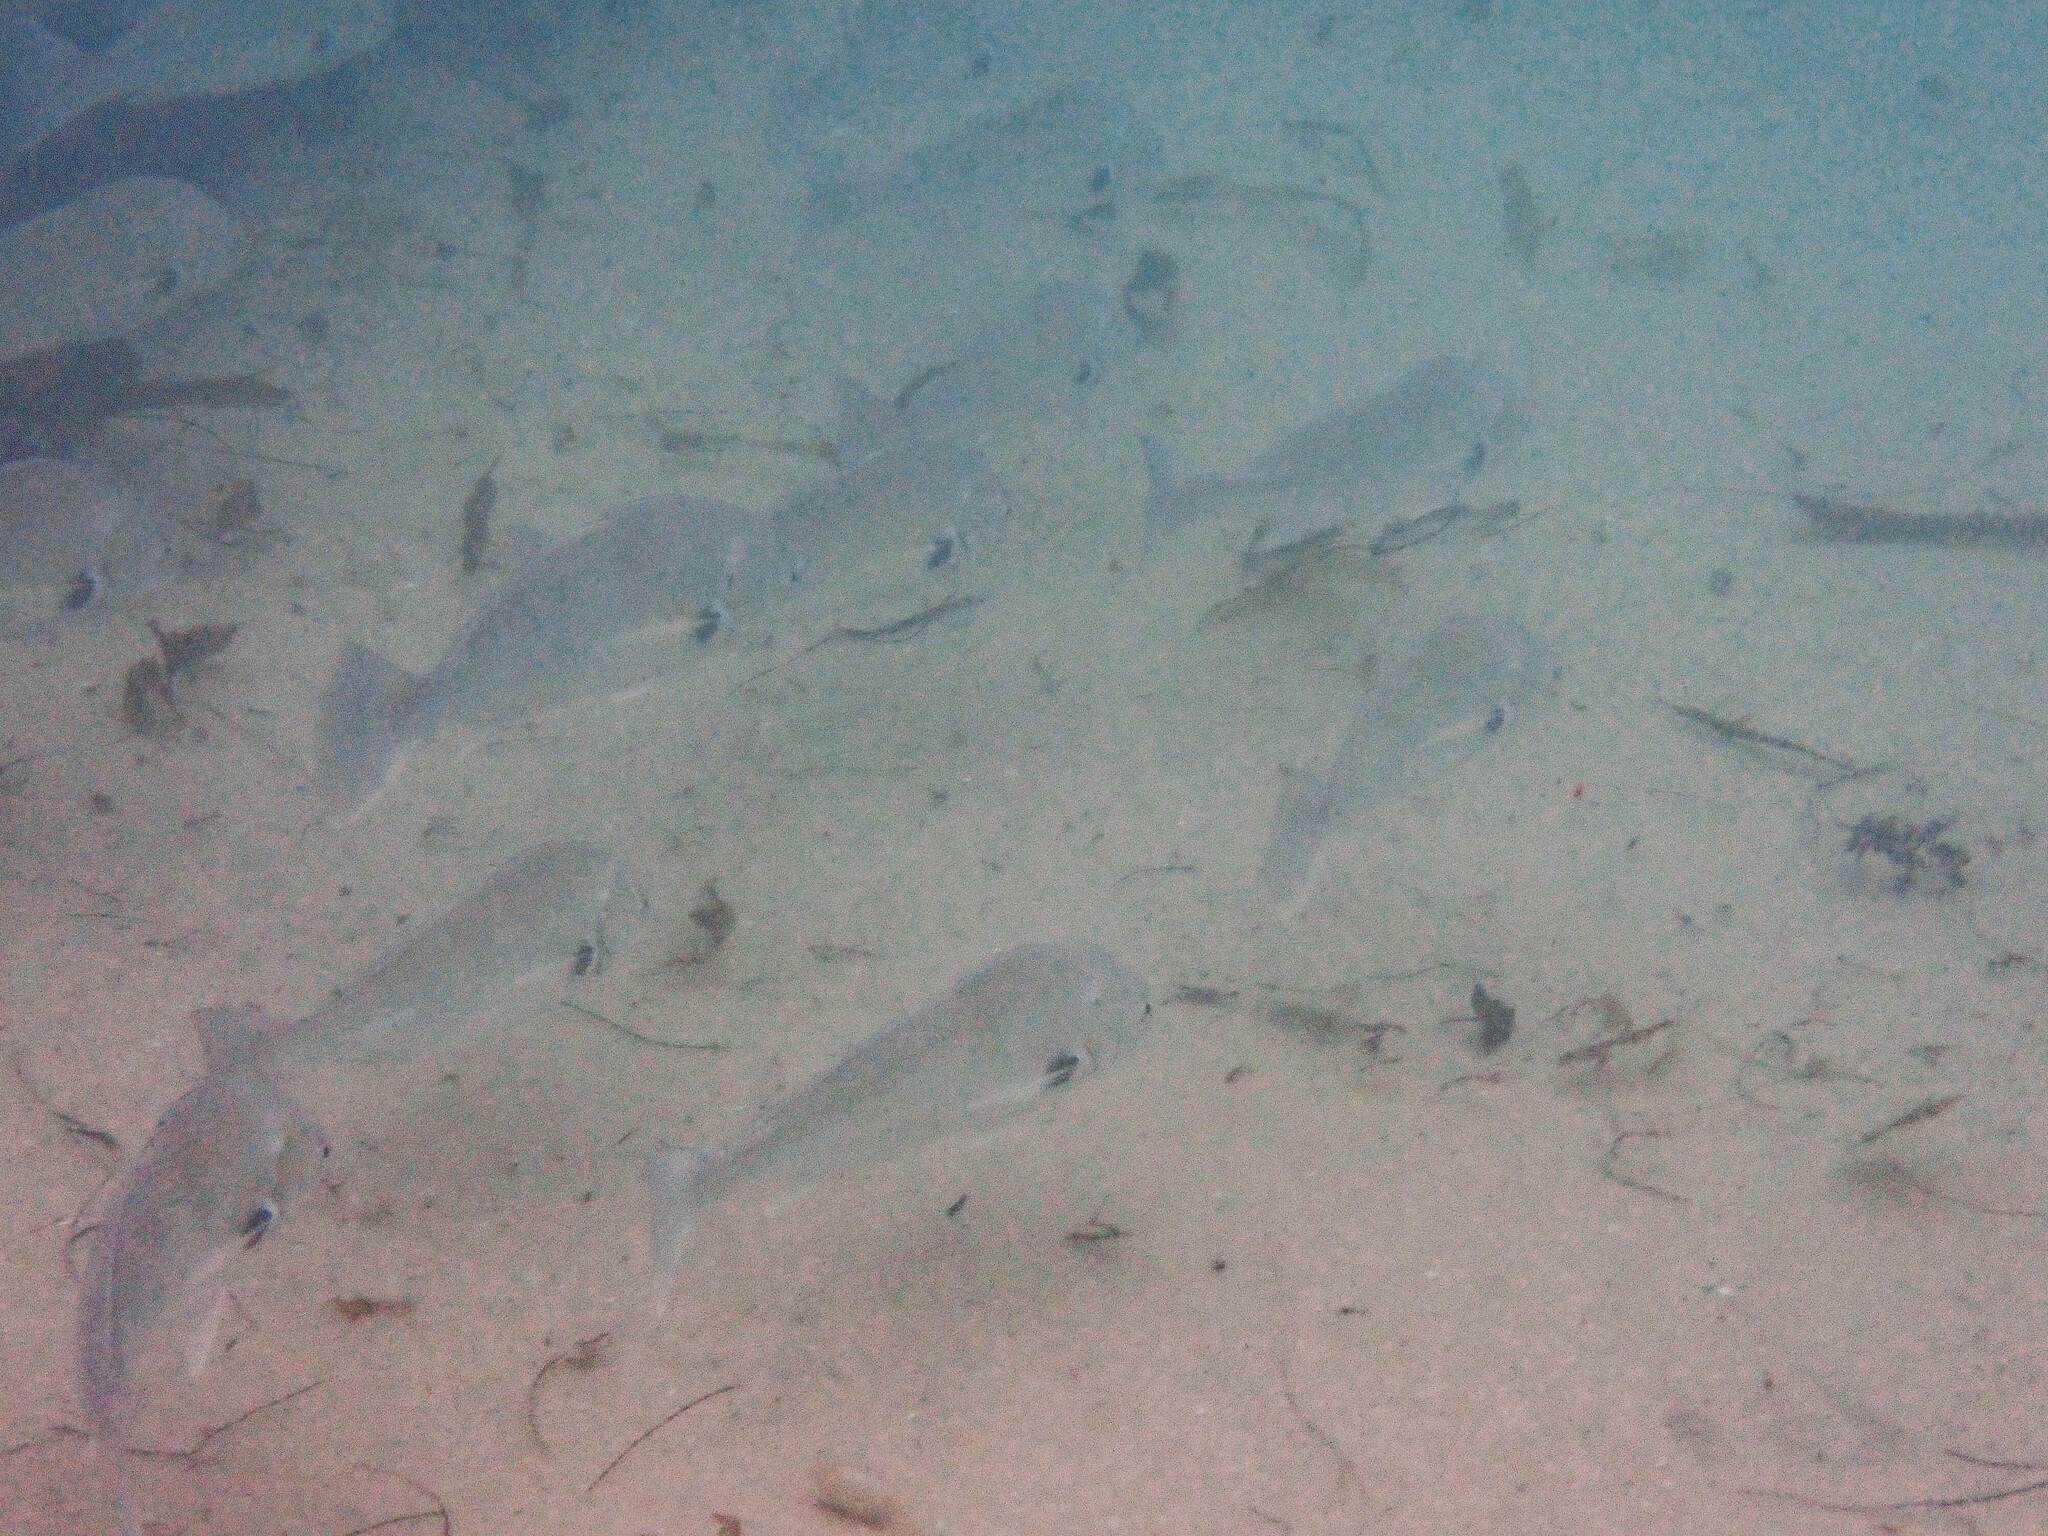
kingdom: Animalia
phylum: Chordata
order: Perciformes
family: Sciaenidae
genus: Roncador
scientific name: Roncador stearnsii
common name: Croaker
